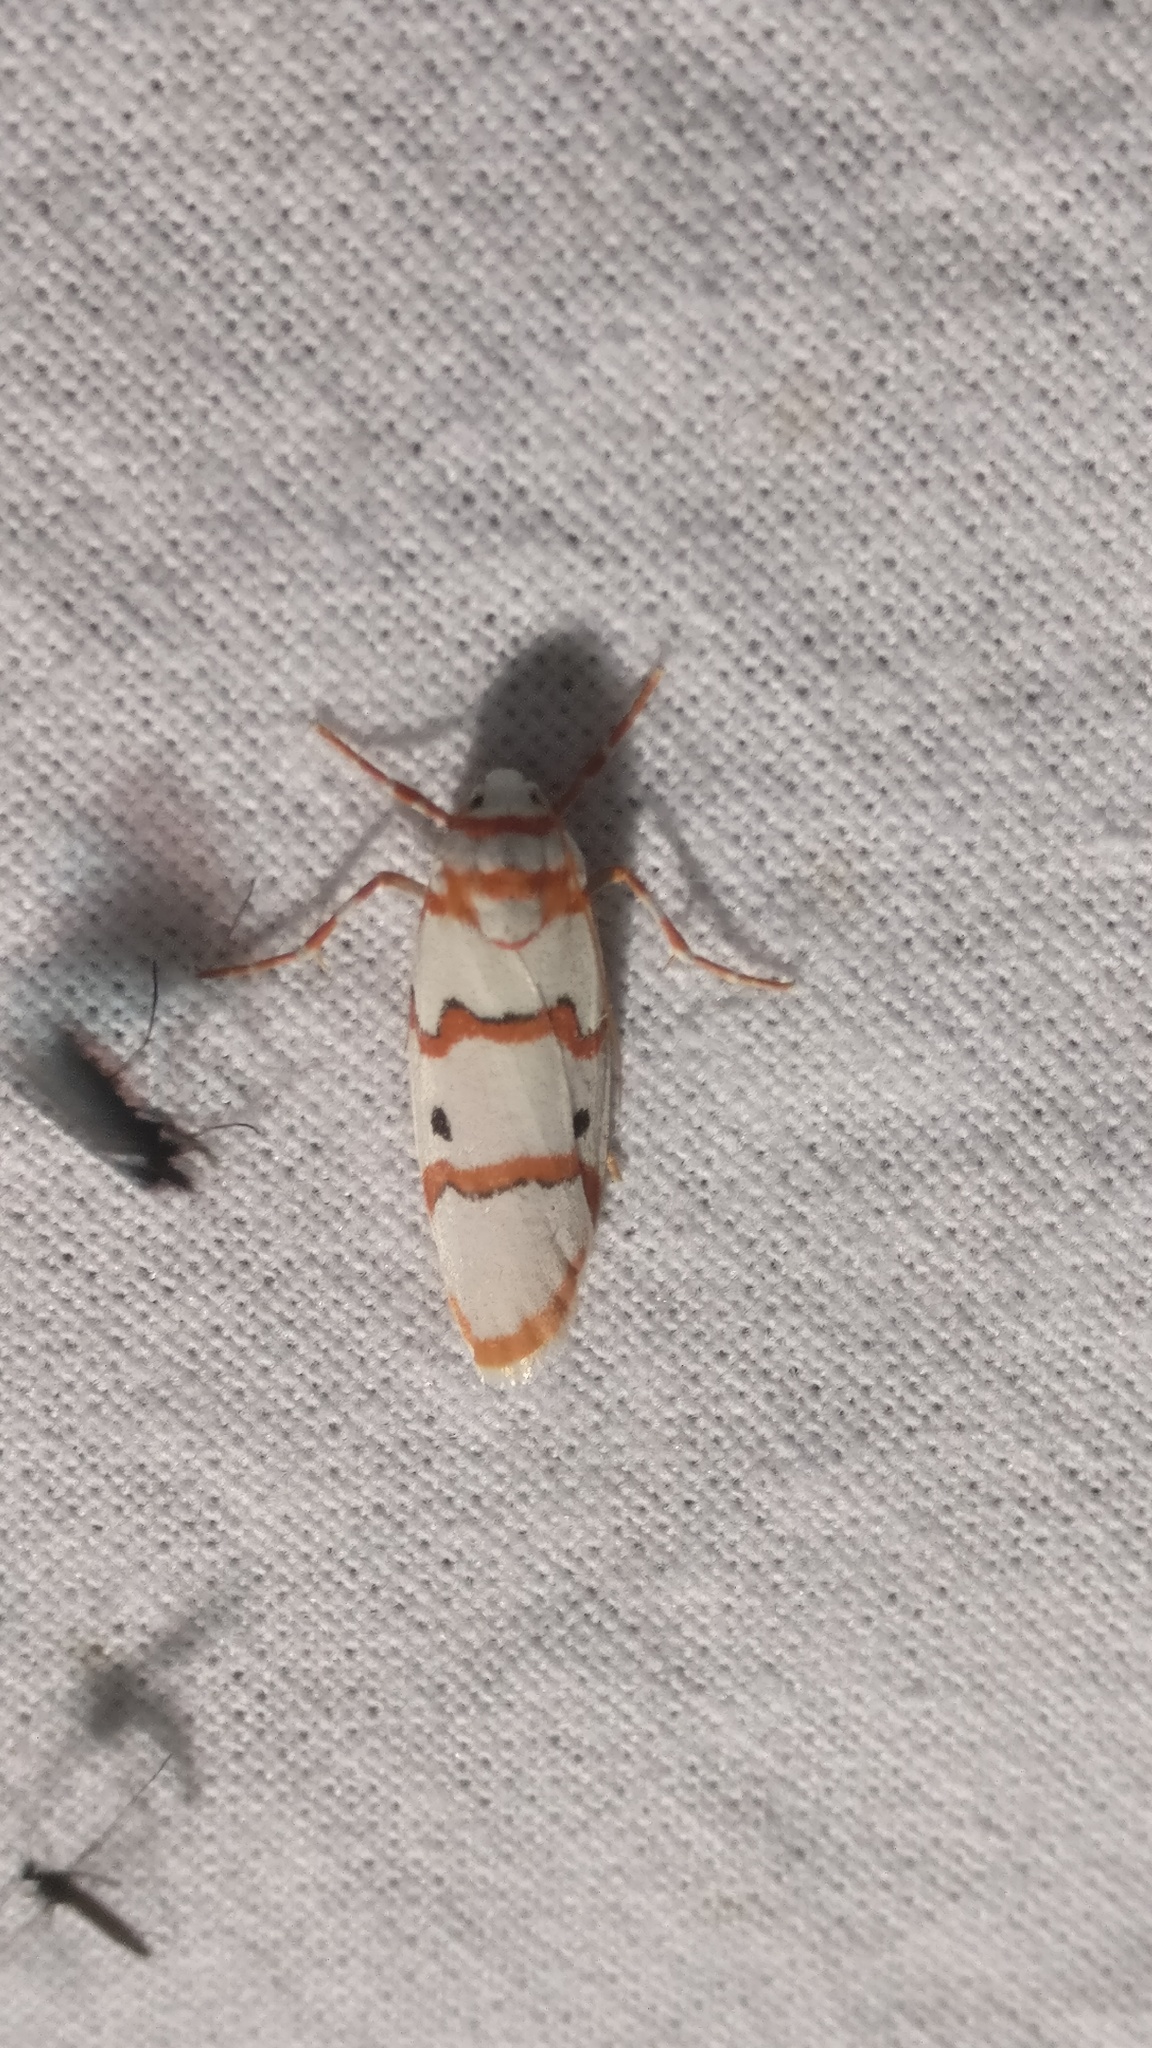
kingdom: Animalia
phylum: Arthropoda
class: Insecta
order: Lepidoptera
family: Erebidae
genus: Cyana
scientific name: Cyana puella
